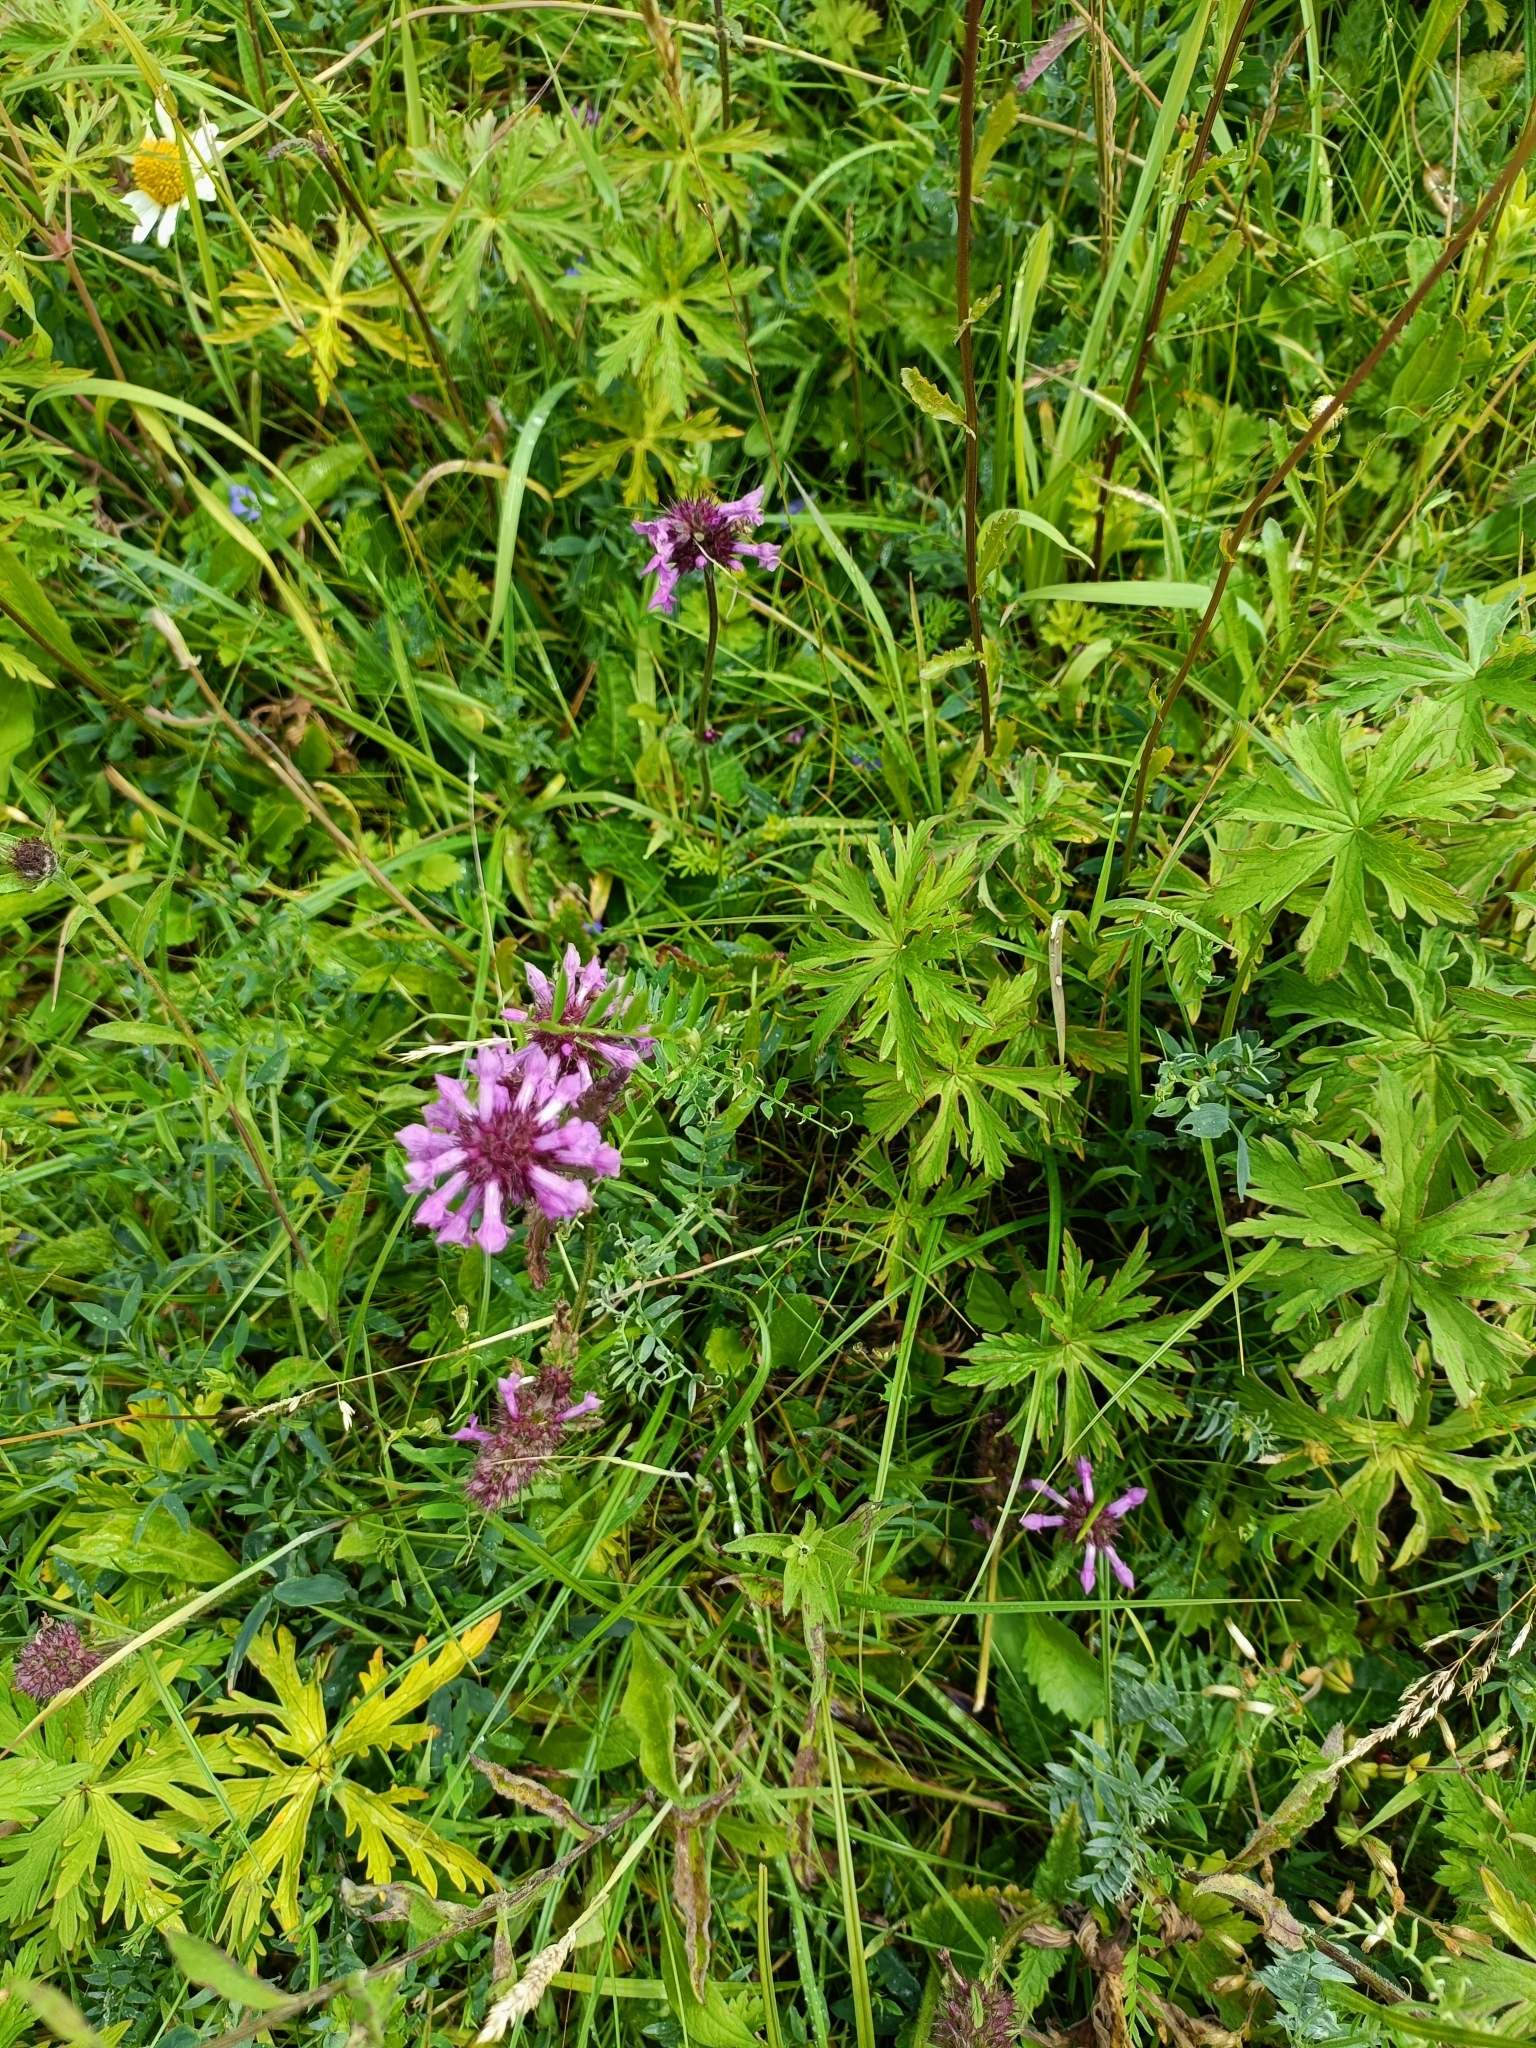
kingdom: Plantae
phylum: Tracheophyta
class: Magnoliopsida
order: Lamiales
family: Lamiaceae
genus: Betonica
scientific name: Betonica officinalis
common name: Bishop's-wort
